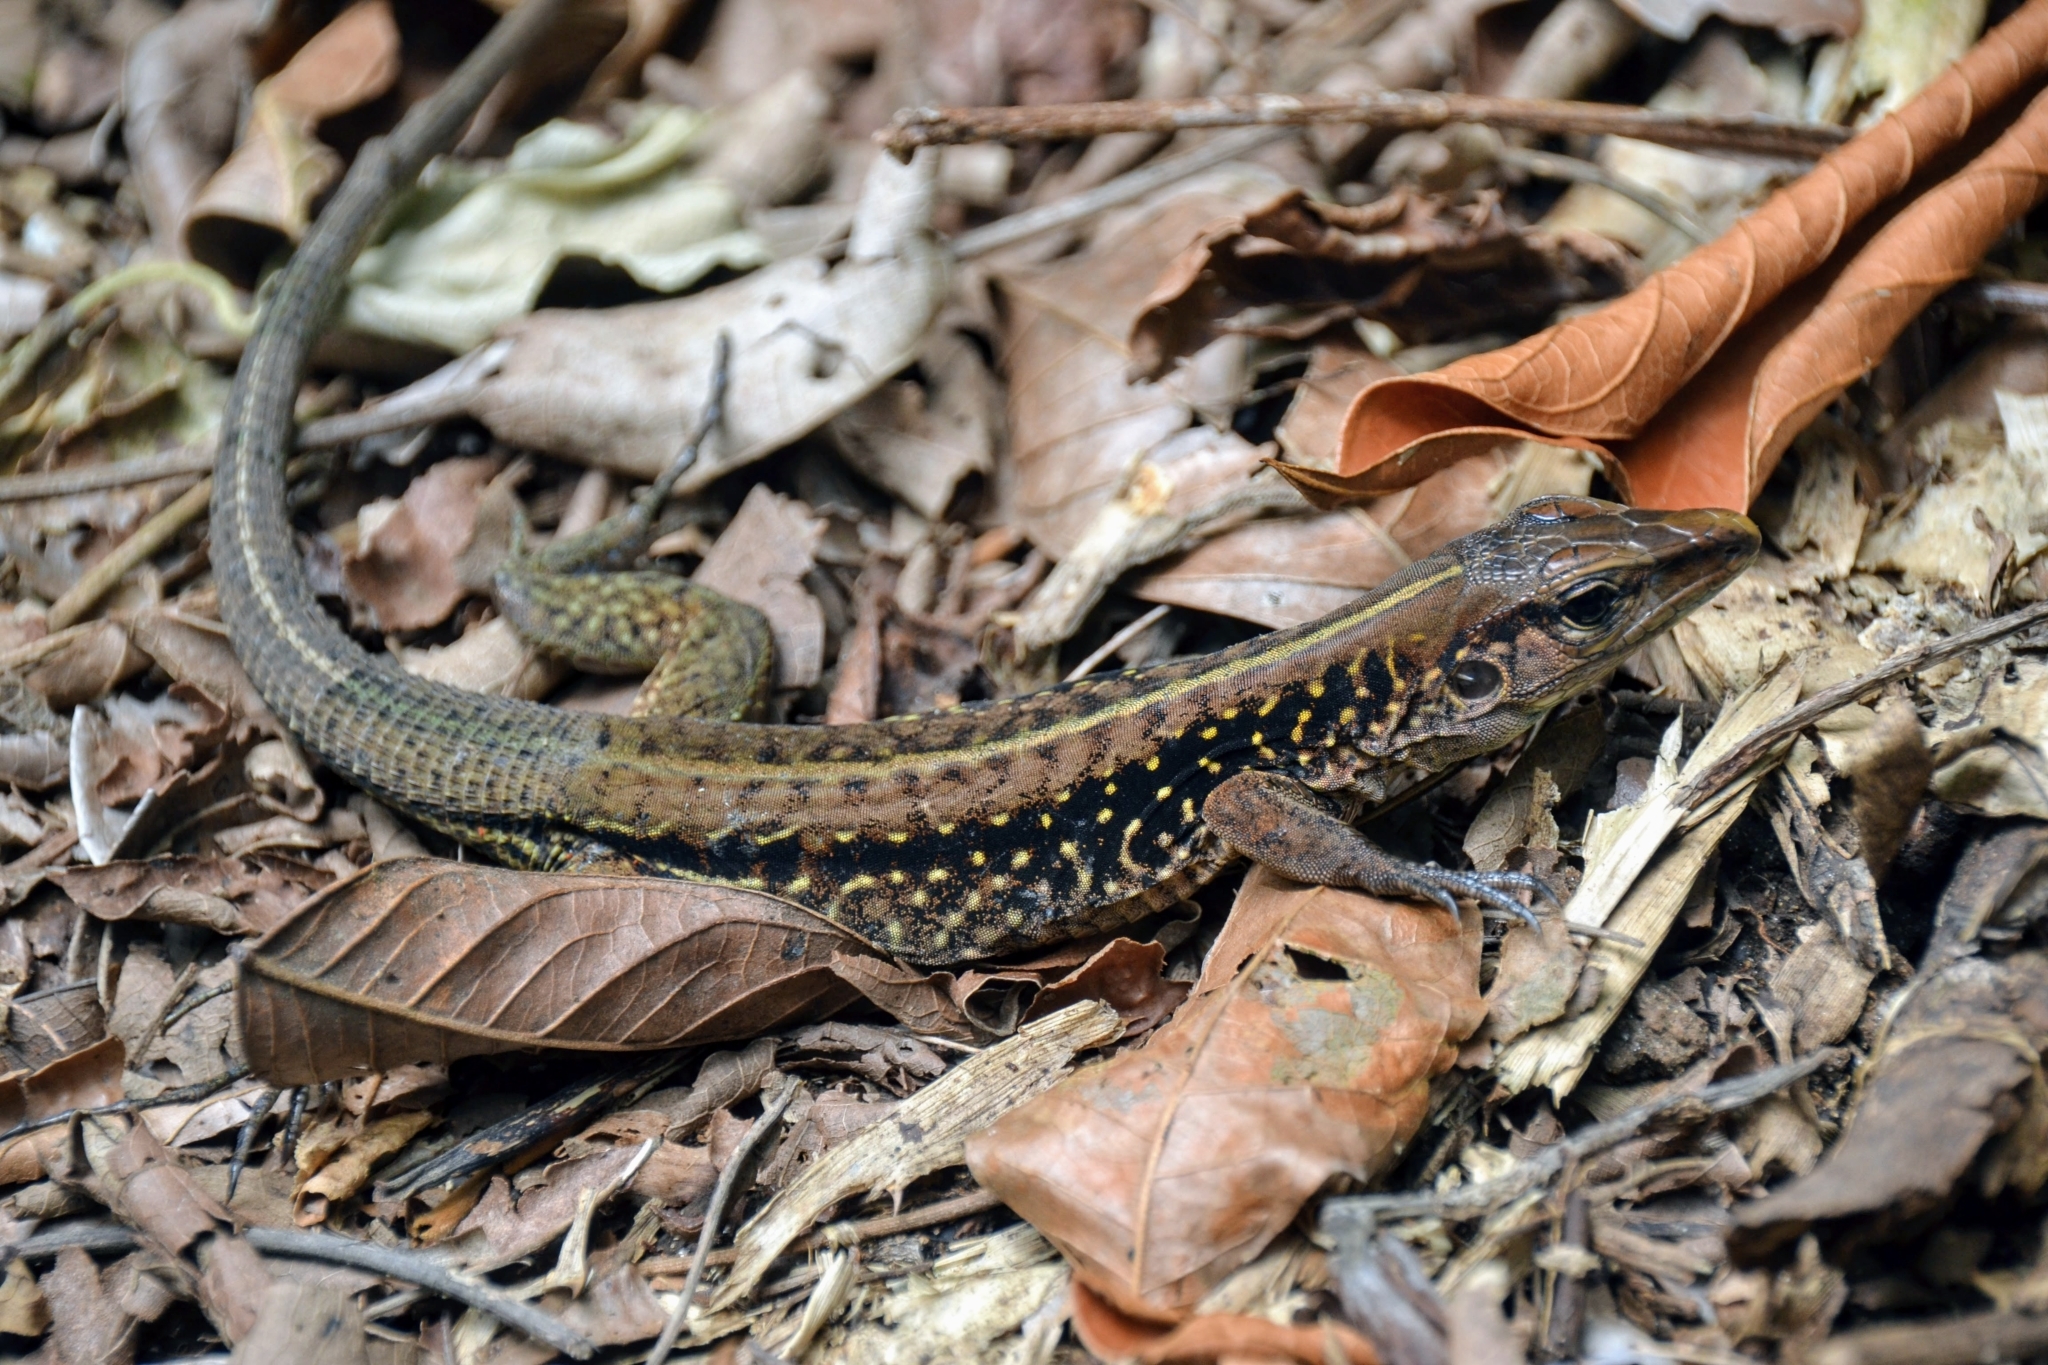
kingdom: Animalia
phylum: Chordata
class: Squamata
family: Teiidae
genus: Holcosus
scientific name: Holcosus festivus
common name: Middle american ameiva
